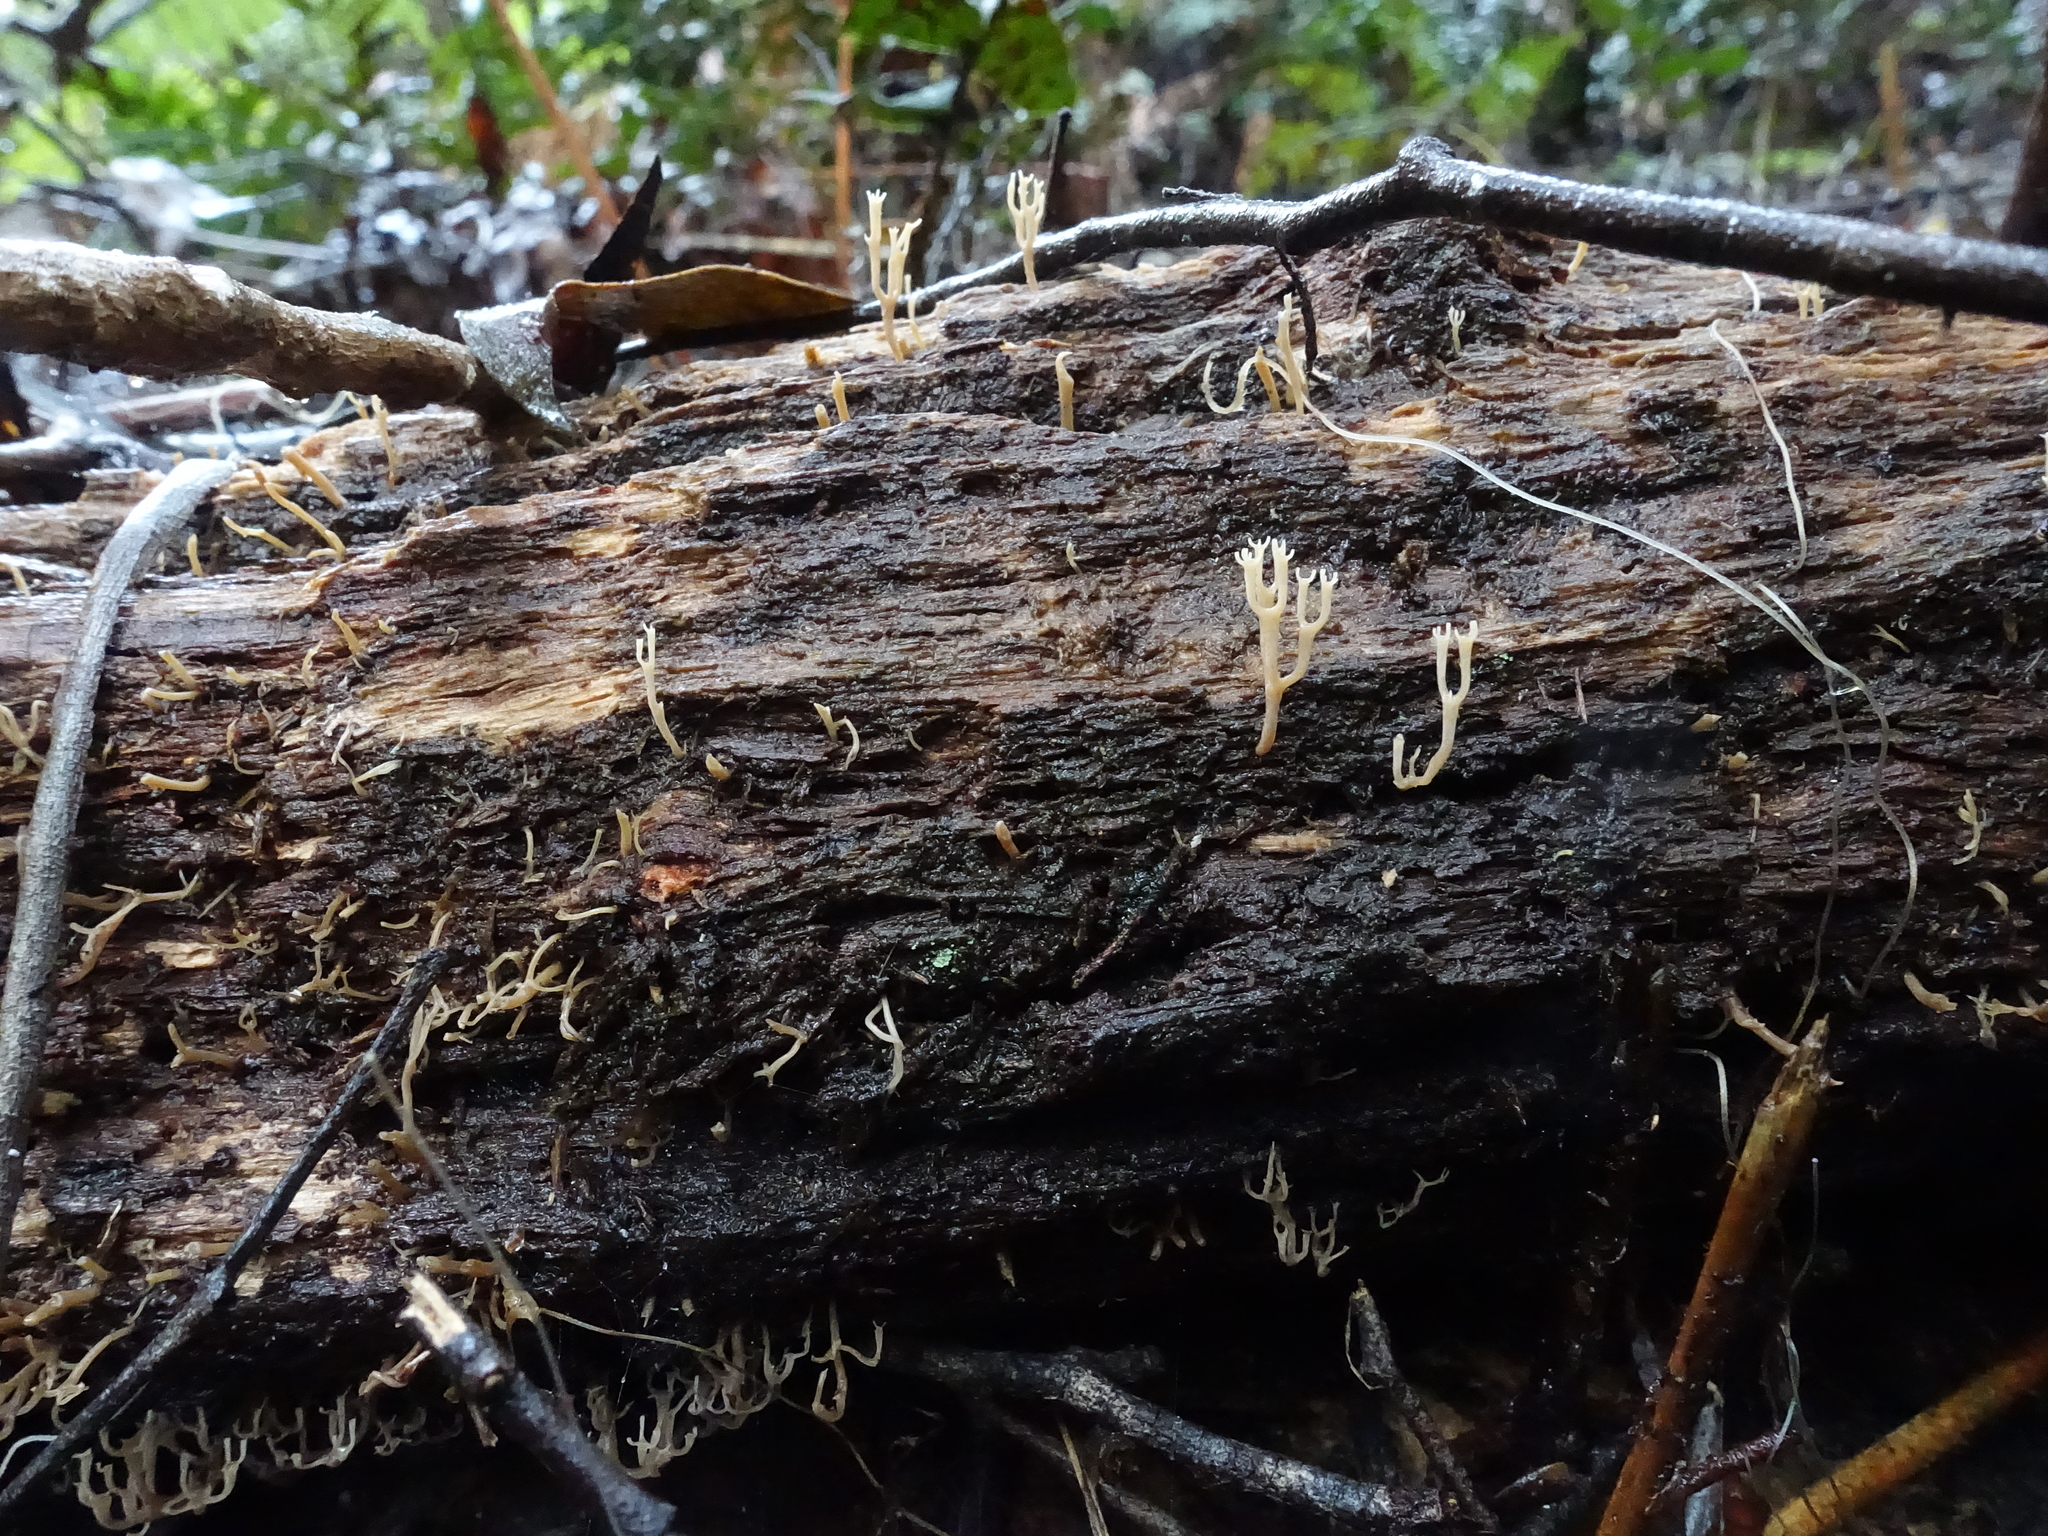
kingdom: Fungi
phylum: Basidiomycota
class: Agaricomycetes
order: Russulales
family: Auriscalpiaceae
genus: Artomyces
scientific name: Artomyces austropiperatus
